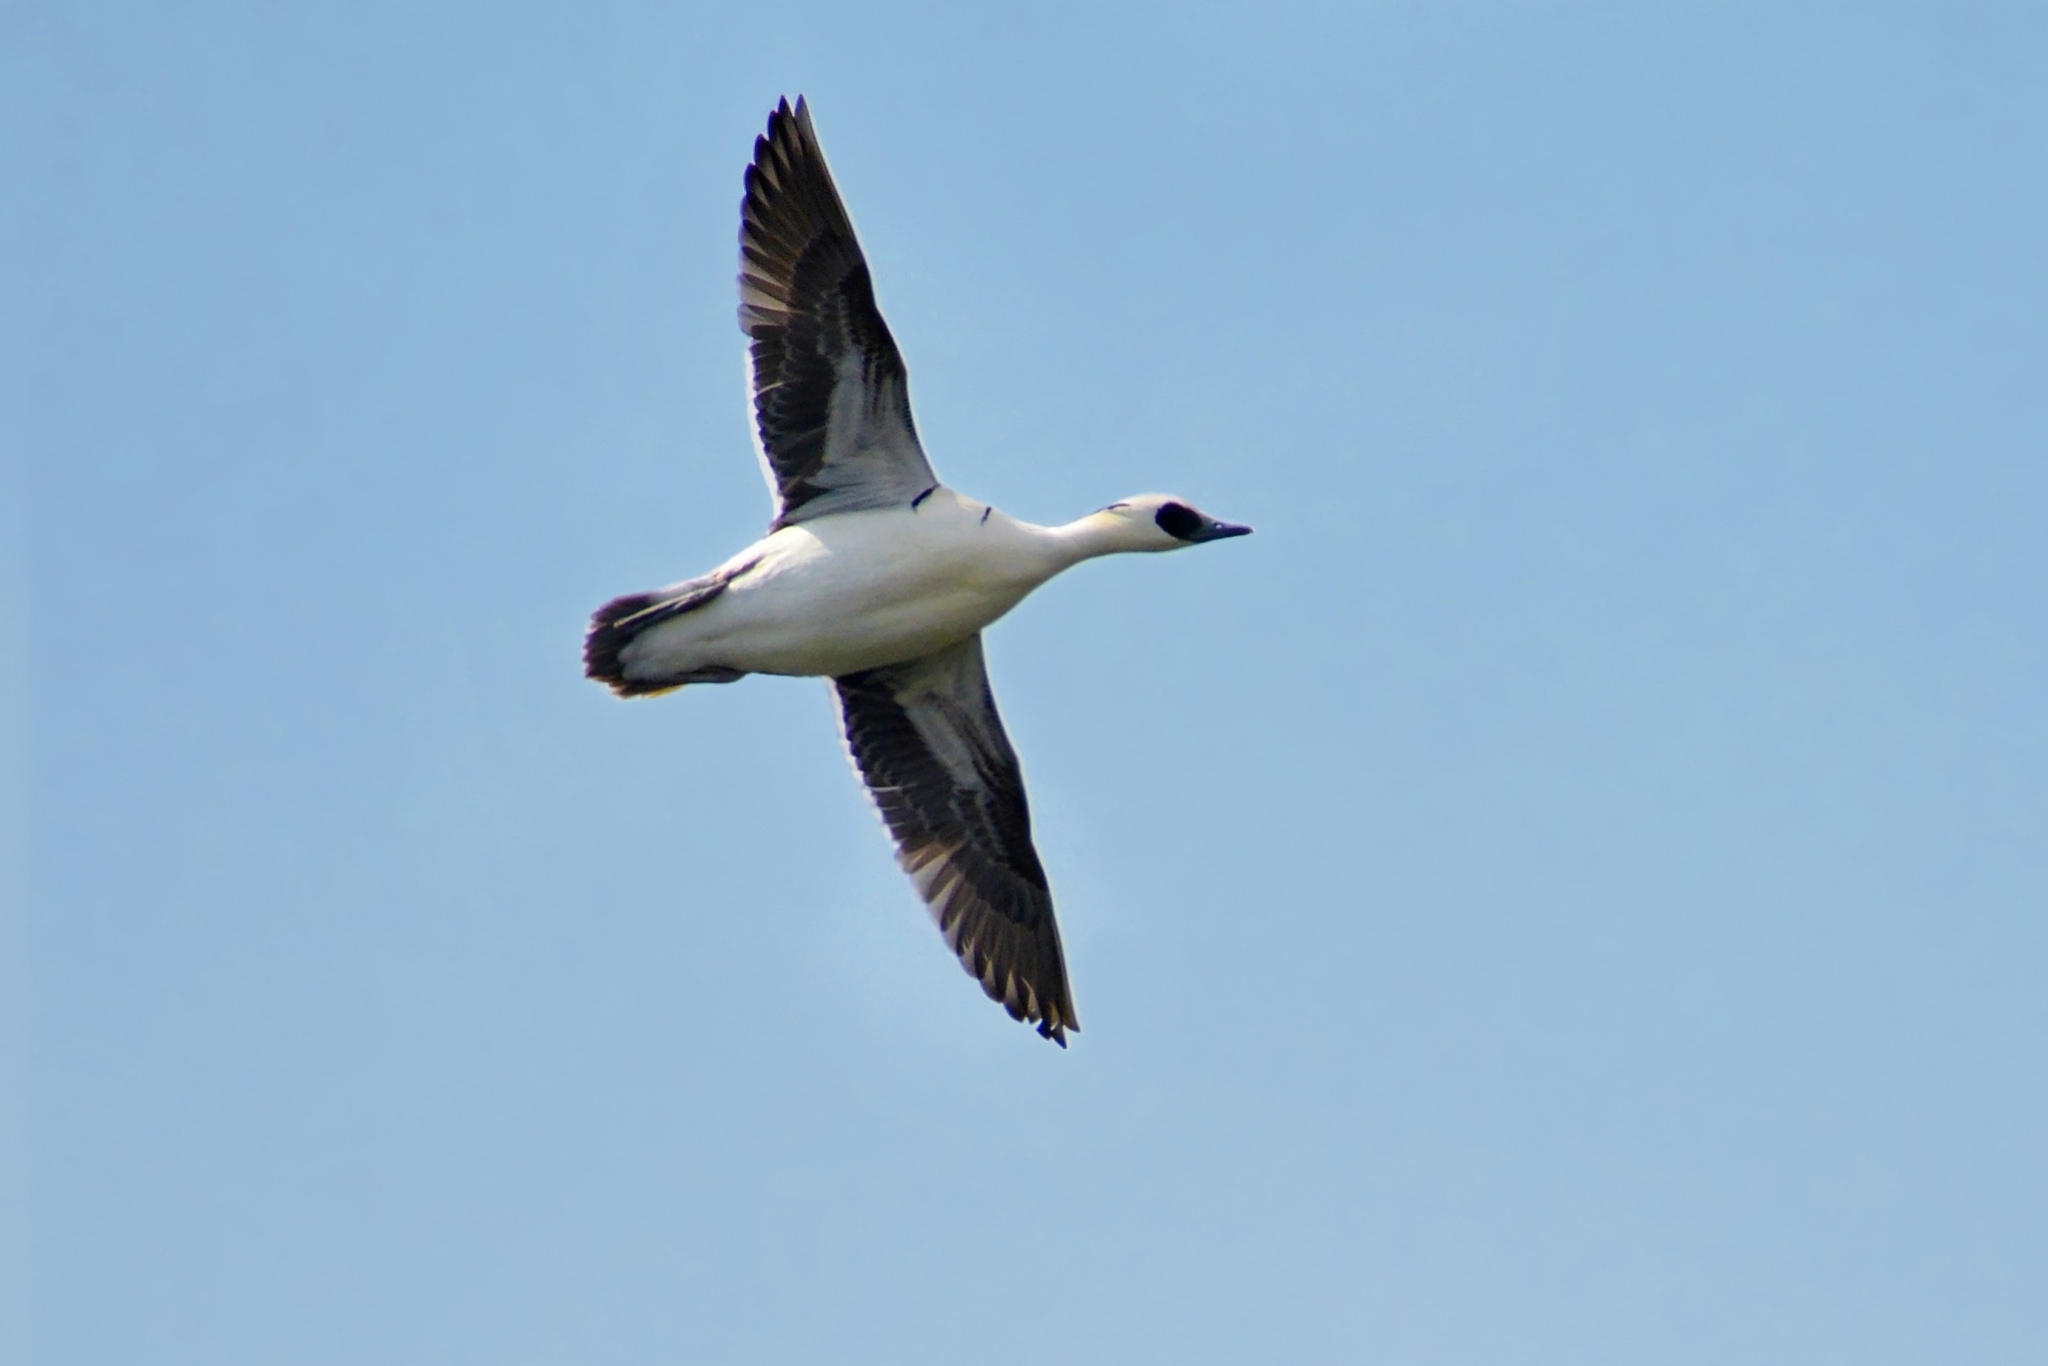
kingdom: Animalia
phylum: Chordata
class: Aves
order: Anseriformes
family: Anatidae
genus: Mergellus
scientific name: Mergellus albellus
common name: Smew
